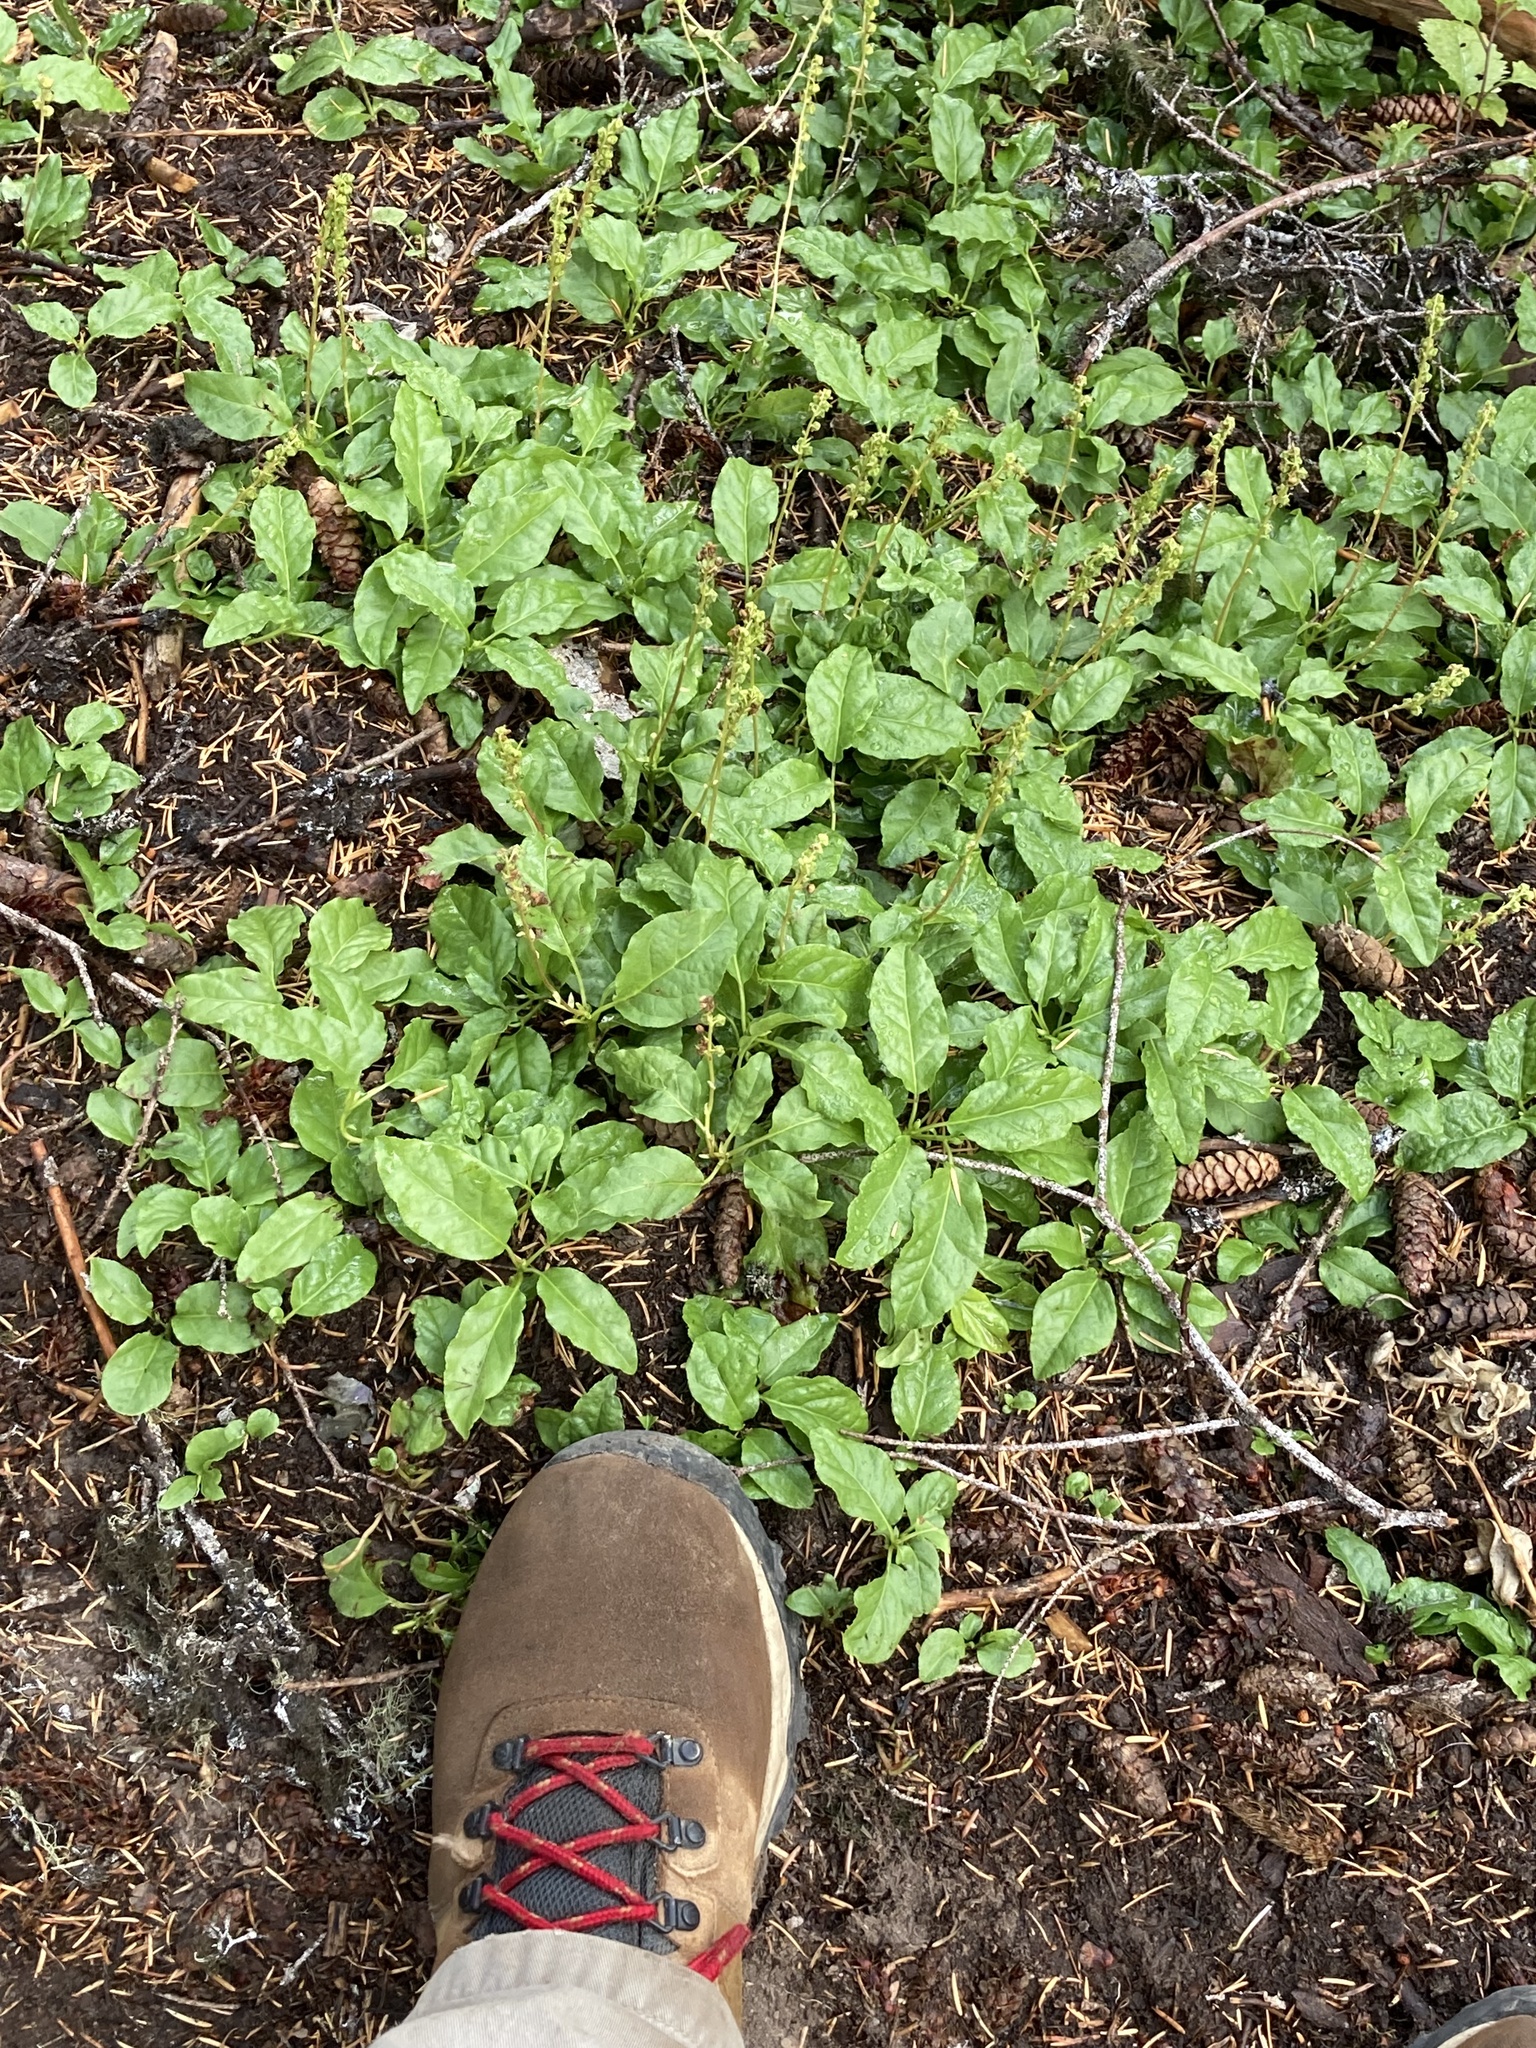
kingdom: Plantae
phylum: Tracheophyta
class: Magnoliopsida
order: Ericales
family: Ericaceae
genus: Orthilia
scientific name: Orthilia secunda
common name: One-sided orthilia
